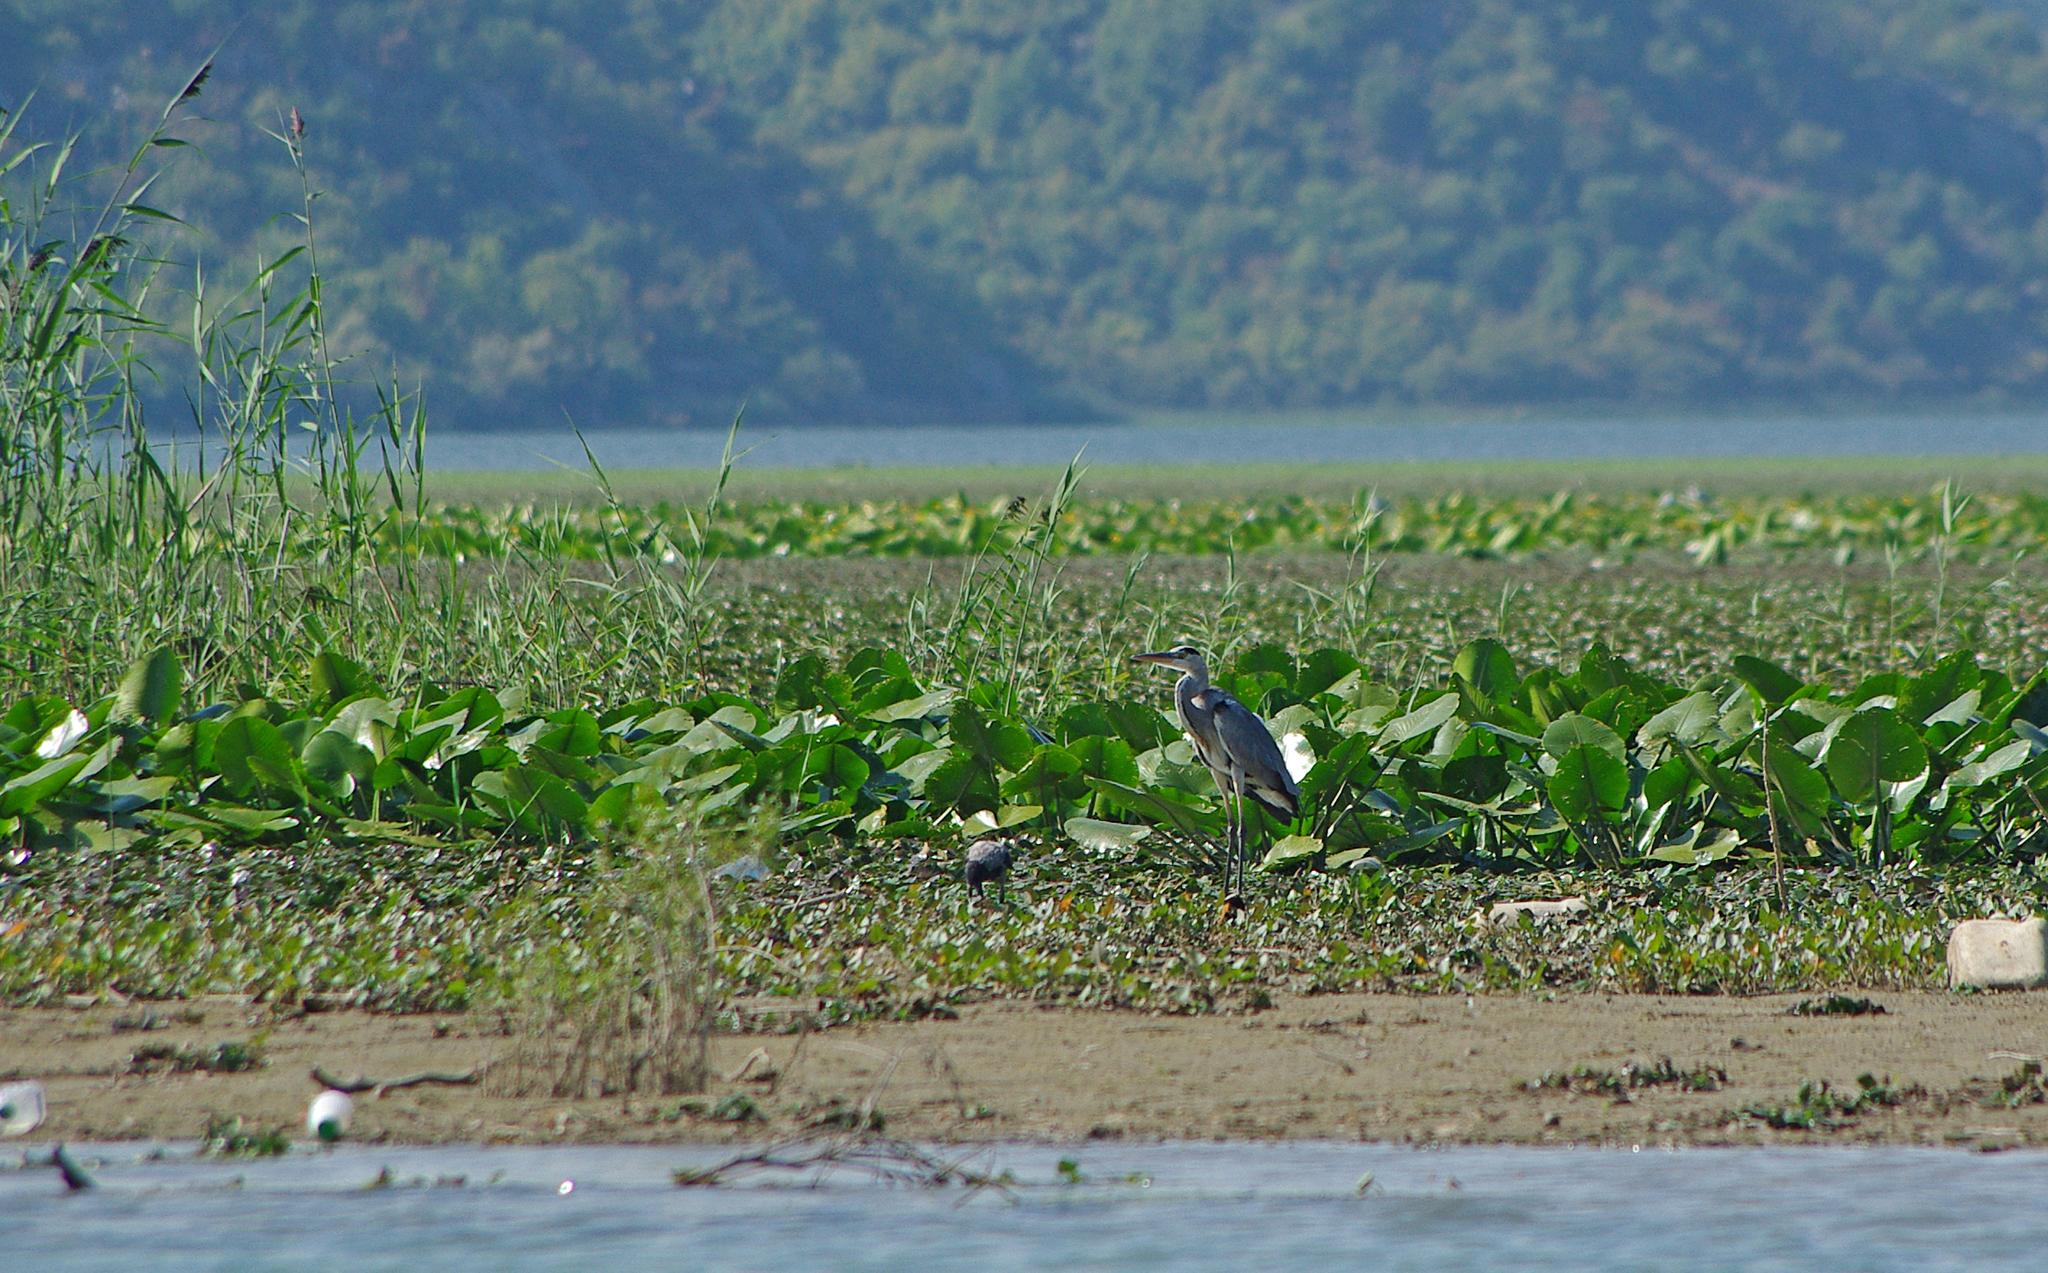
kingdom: Animalia
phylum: Chordata
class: Aves
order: Pelecaniformes
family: Ardeidae
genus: Ardea
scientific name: Ardea cinerea
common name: Grey heron
